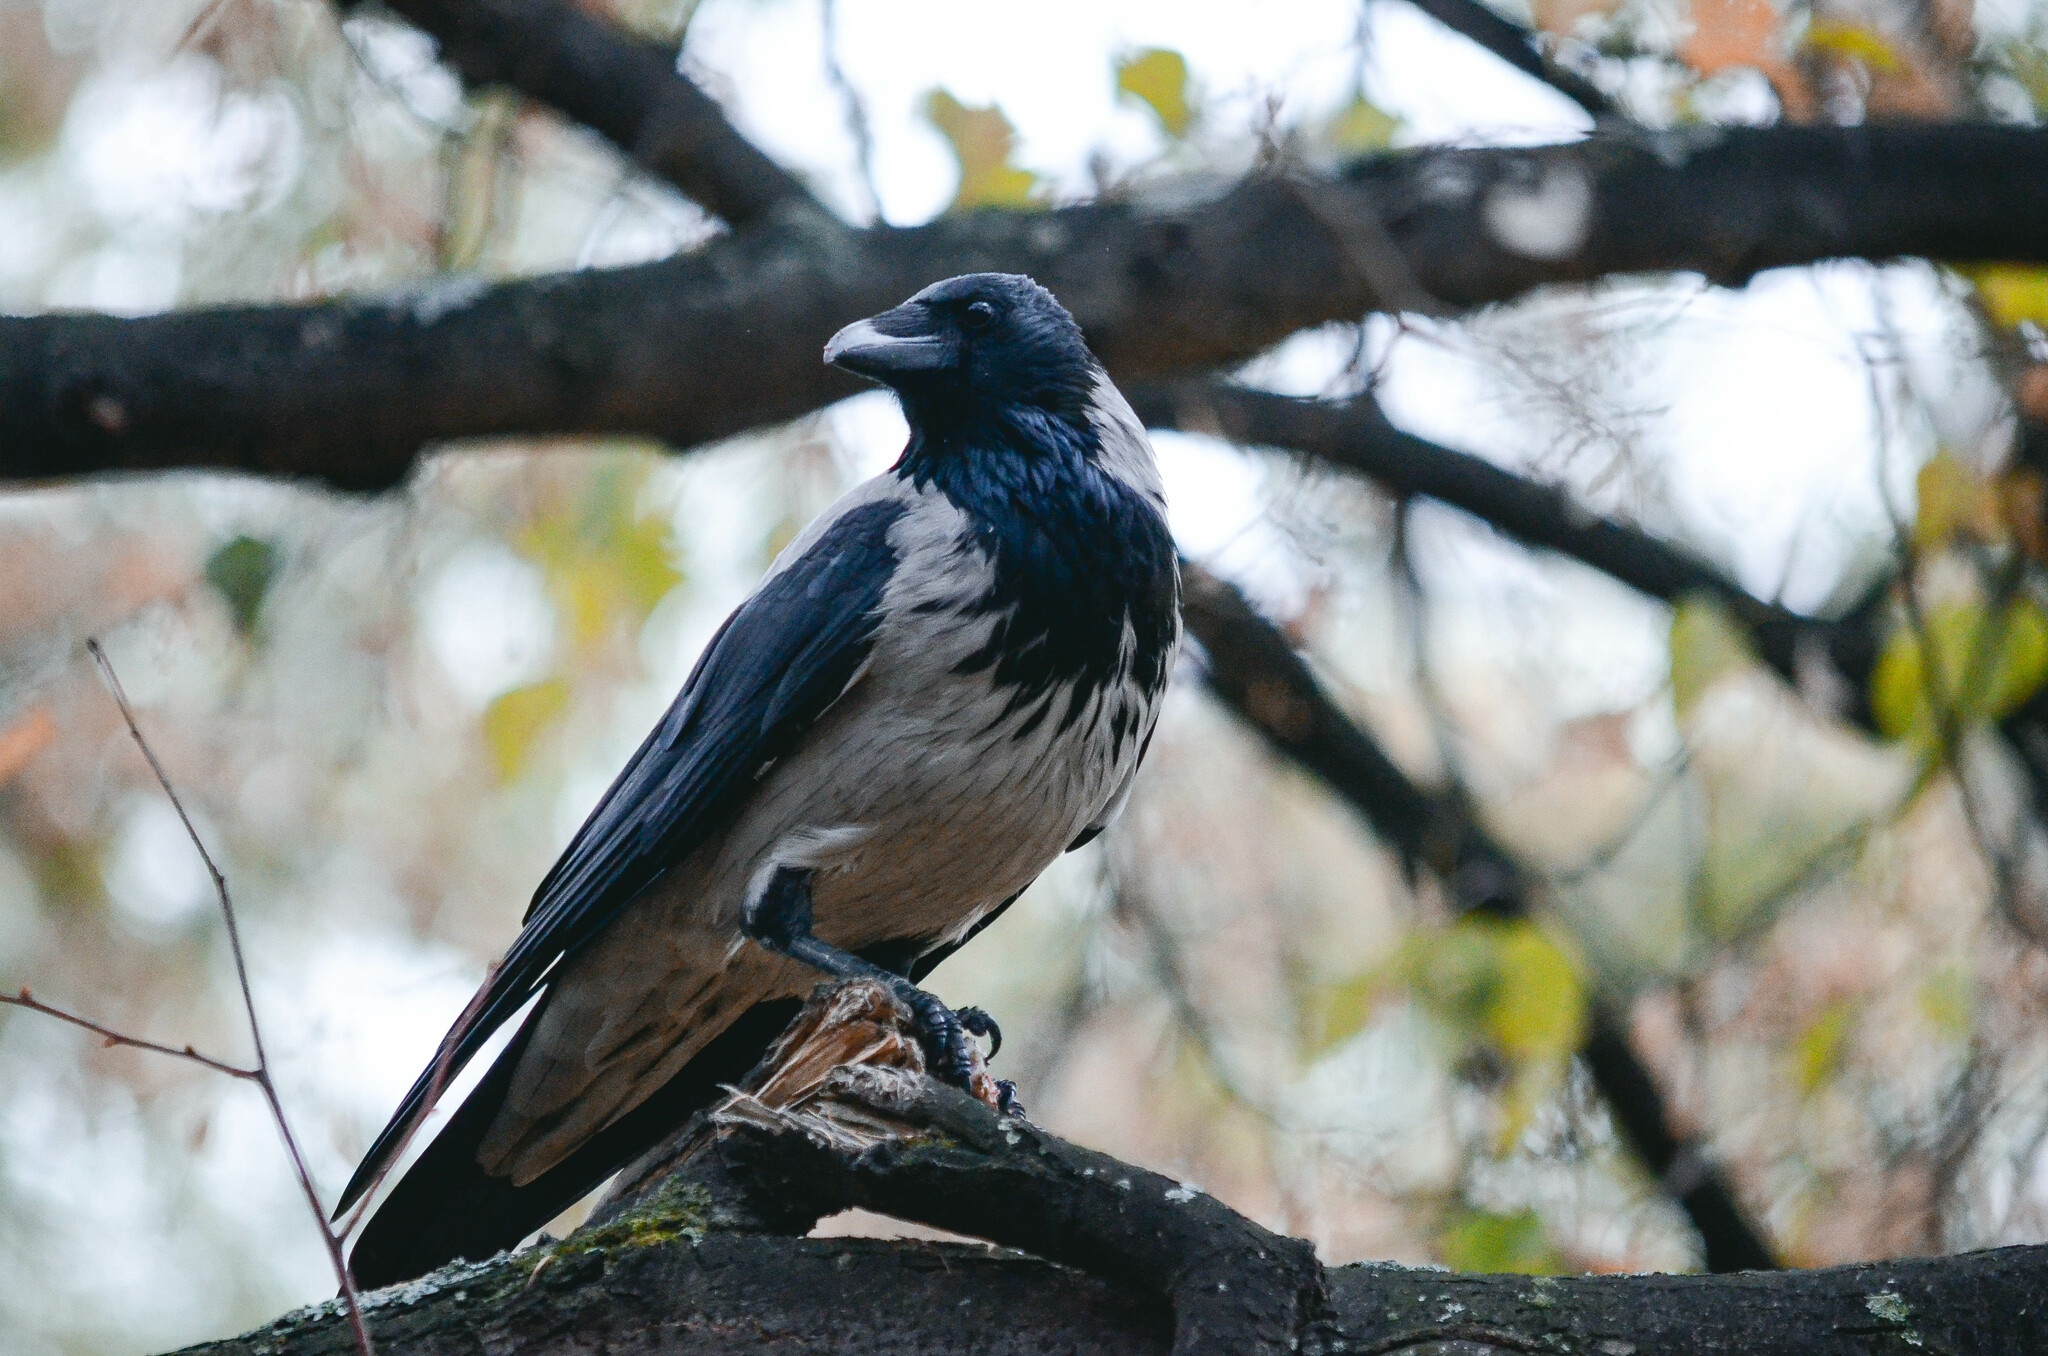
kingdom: Animalia
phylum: Chordata
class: Aves
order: Passeriformes
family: Corvidae
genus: Corvus
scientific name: Corvus cornix
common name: Hooded crow
